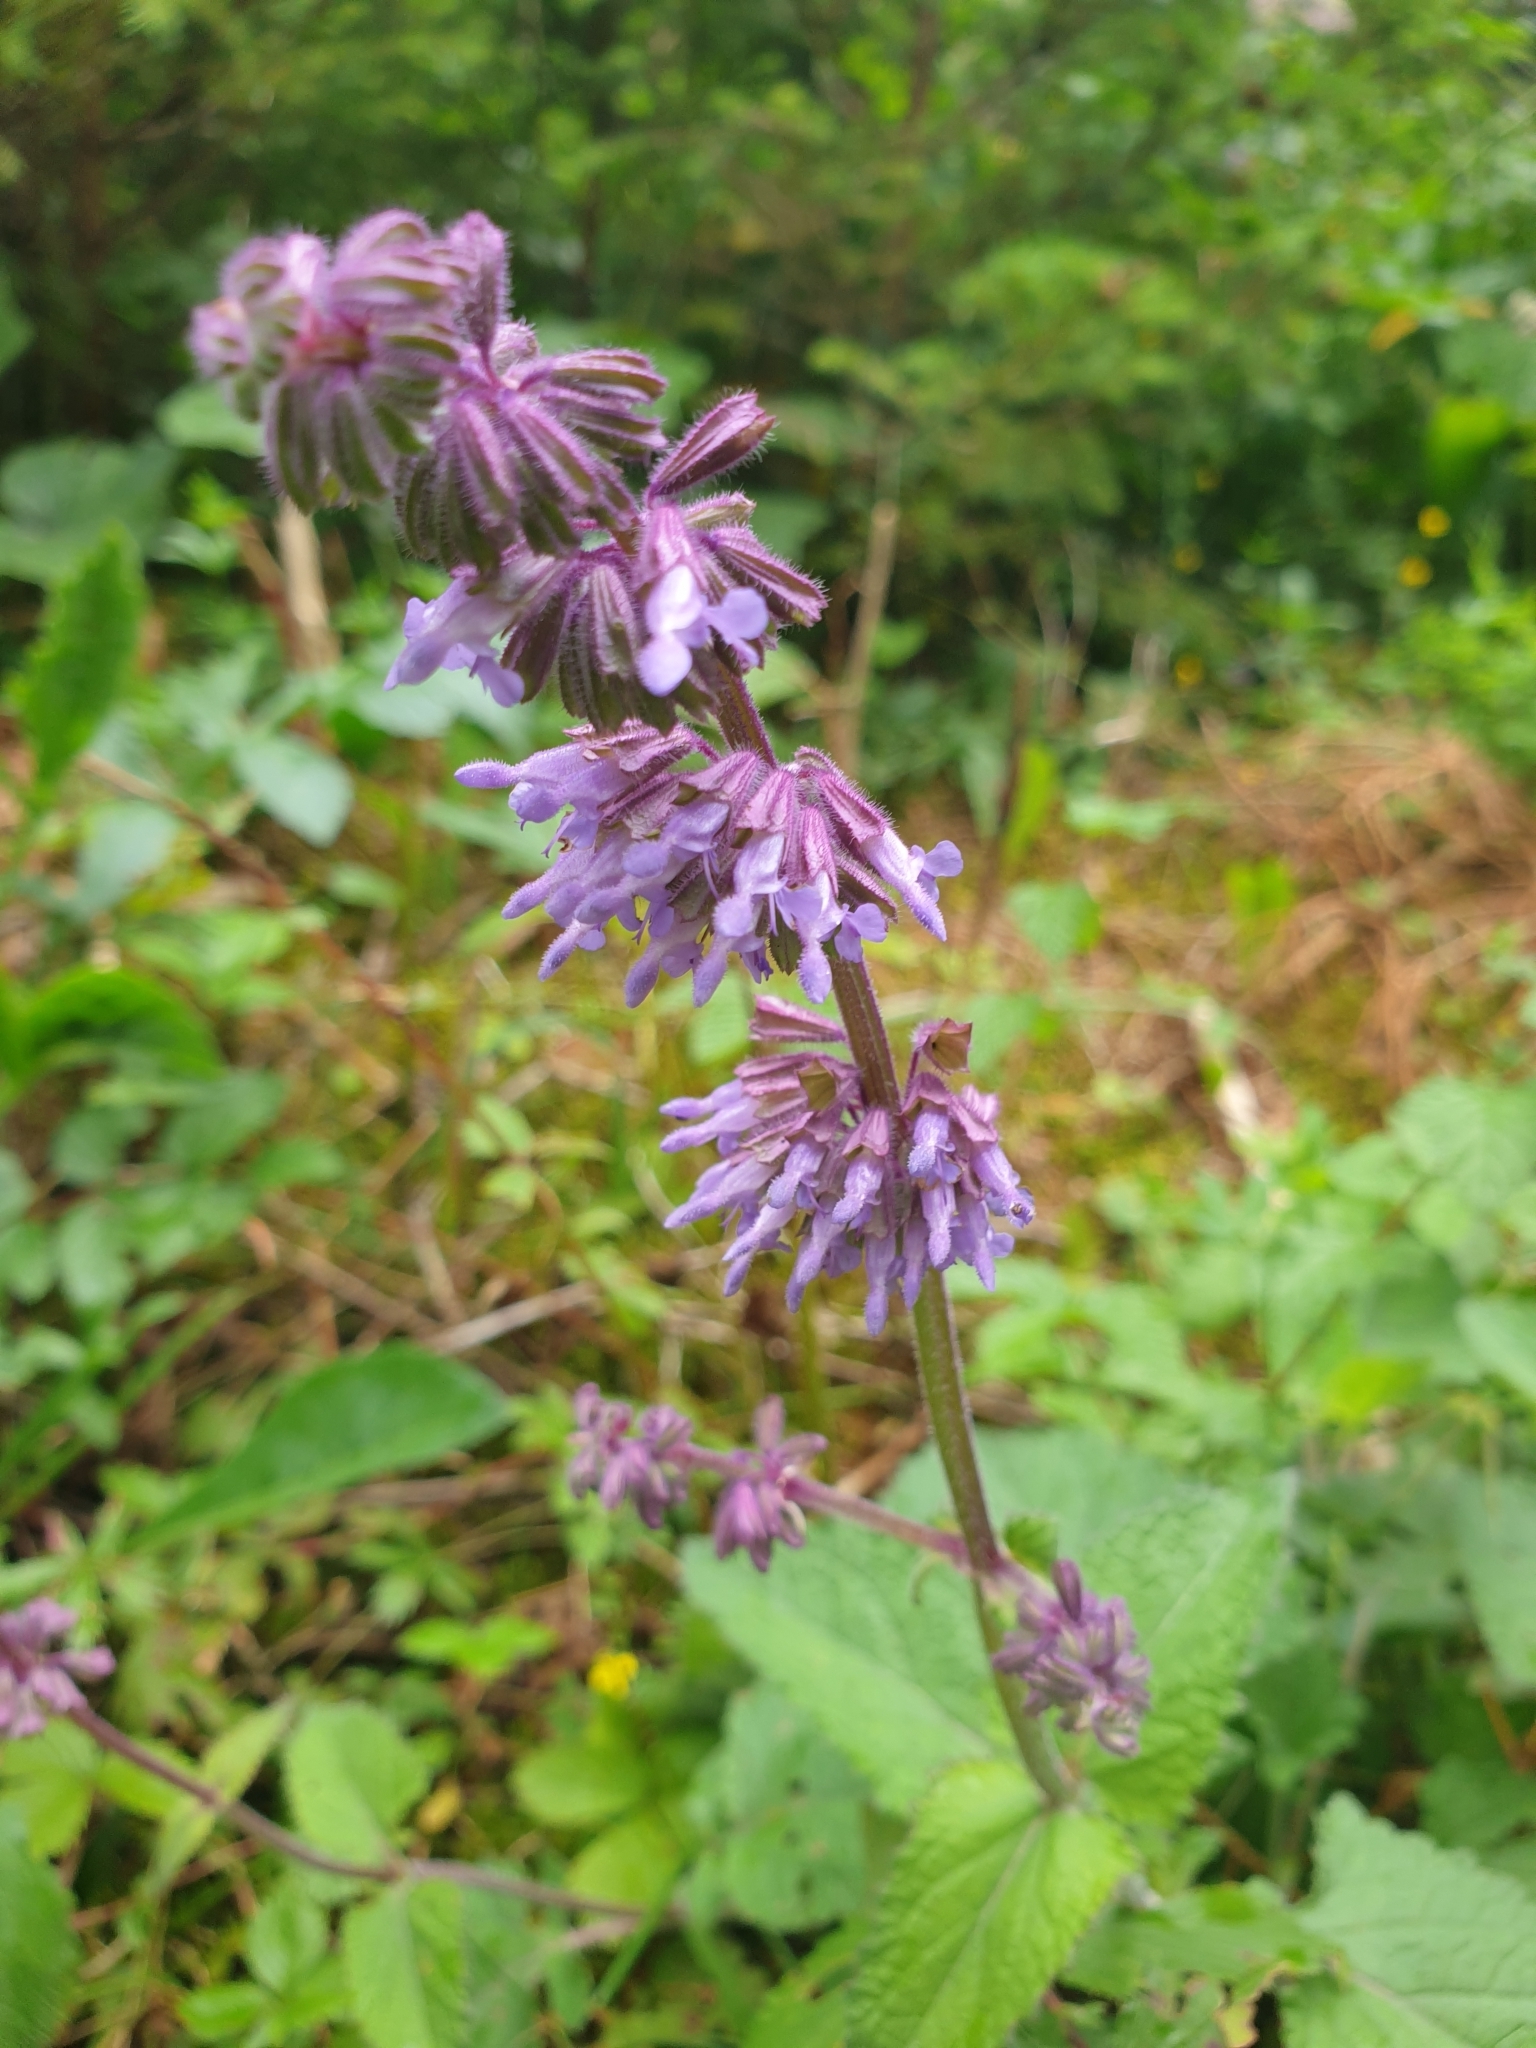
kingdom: Plantae
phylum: Tracheophyta
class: Magnoliopsida
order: Lamiales
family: Lamiaceae
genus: Salvia
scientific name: Salvia verticillata
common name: Whorled clary
